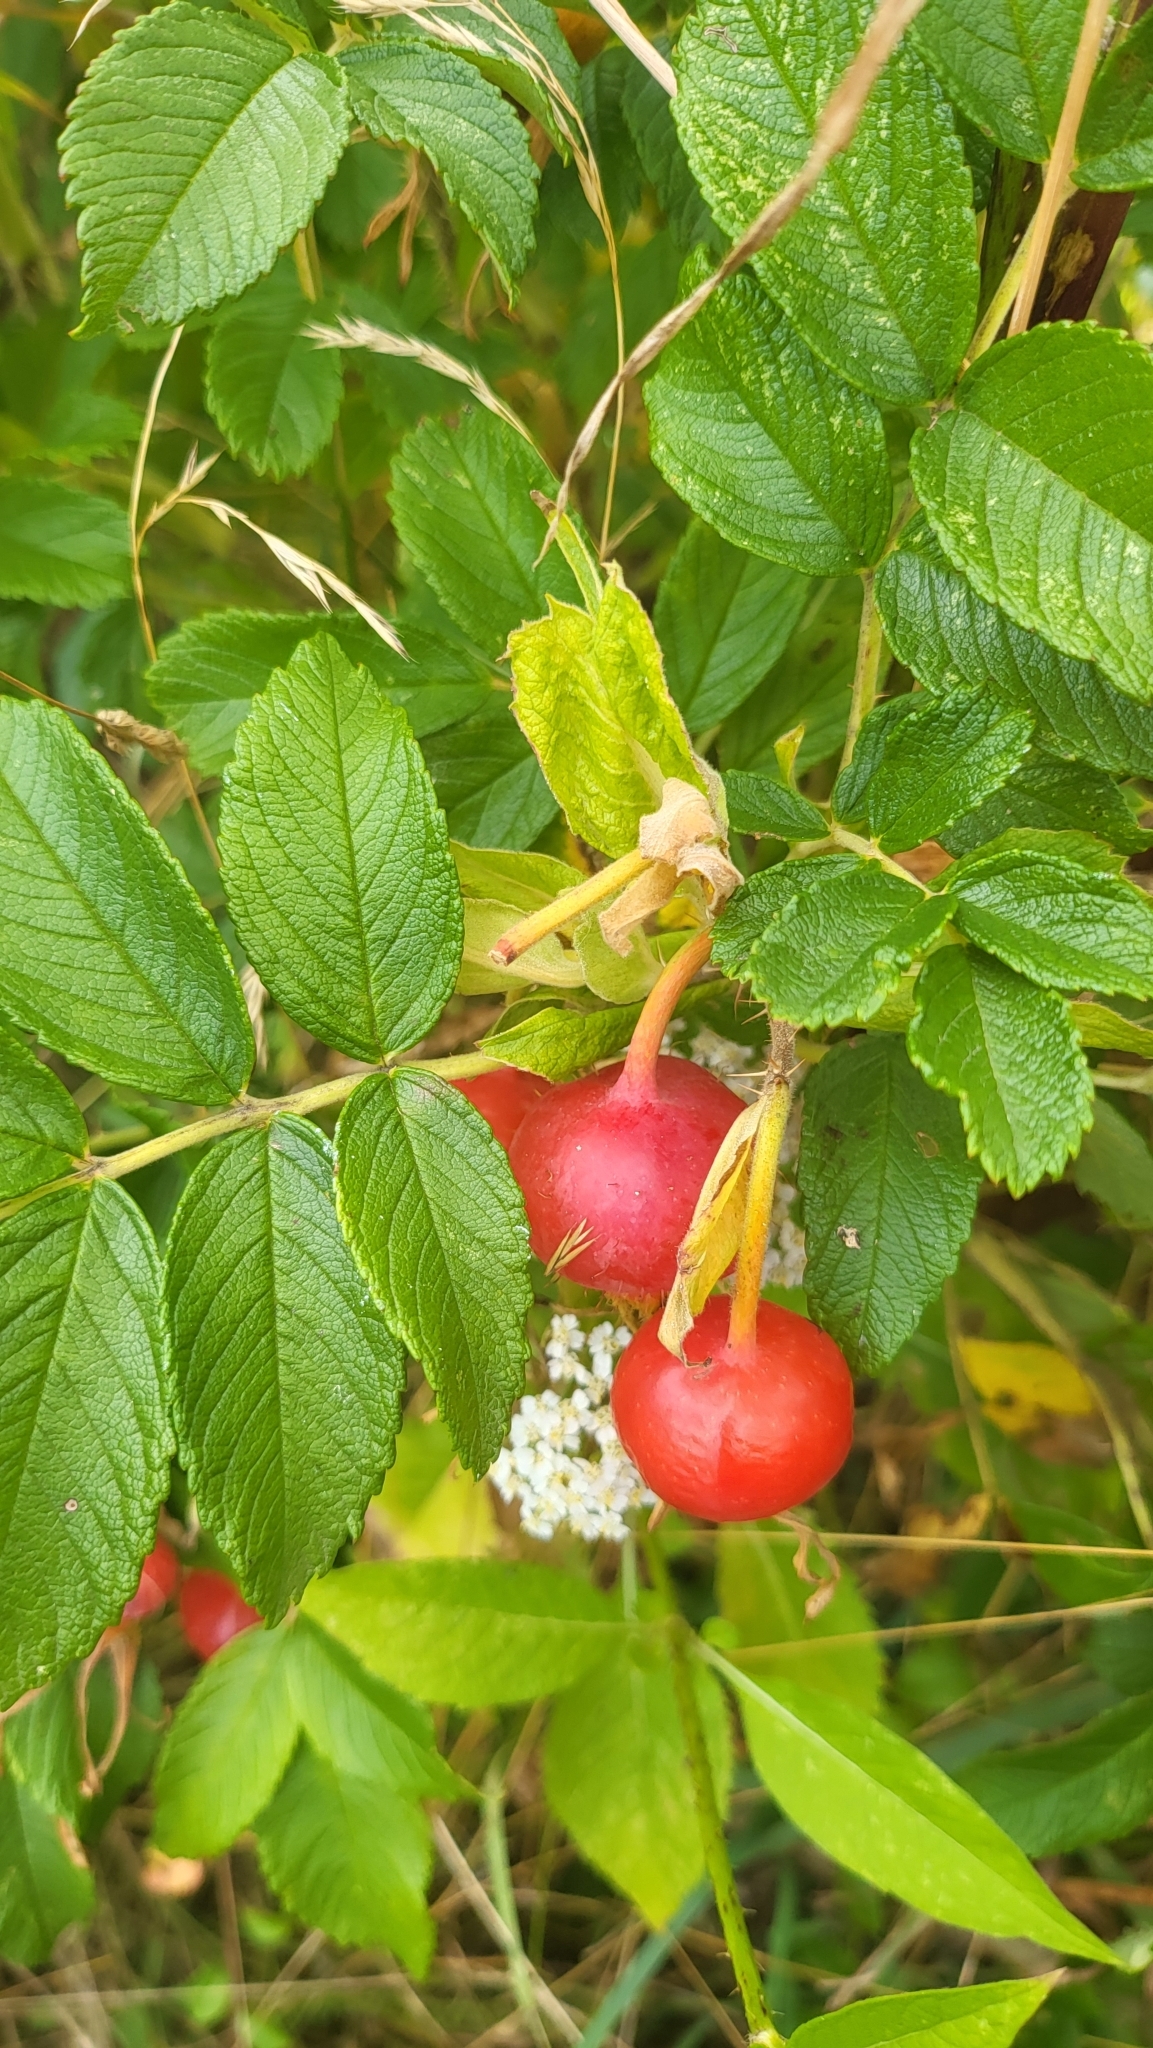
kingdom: Plantae
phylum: Tracheophyta
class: Magnoliopsida
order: Rosales
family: Rosaceae
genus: Rosa
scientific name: Rosa rugosa
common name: Japanese rose
